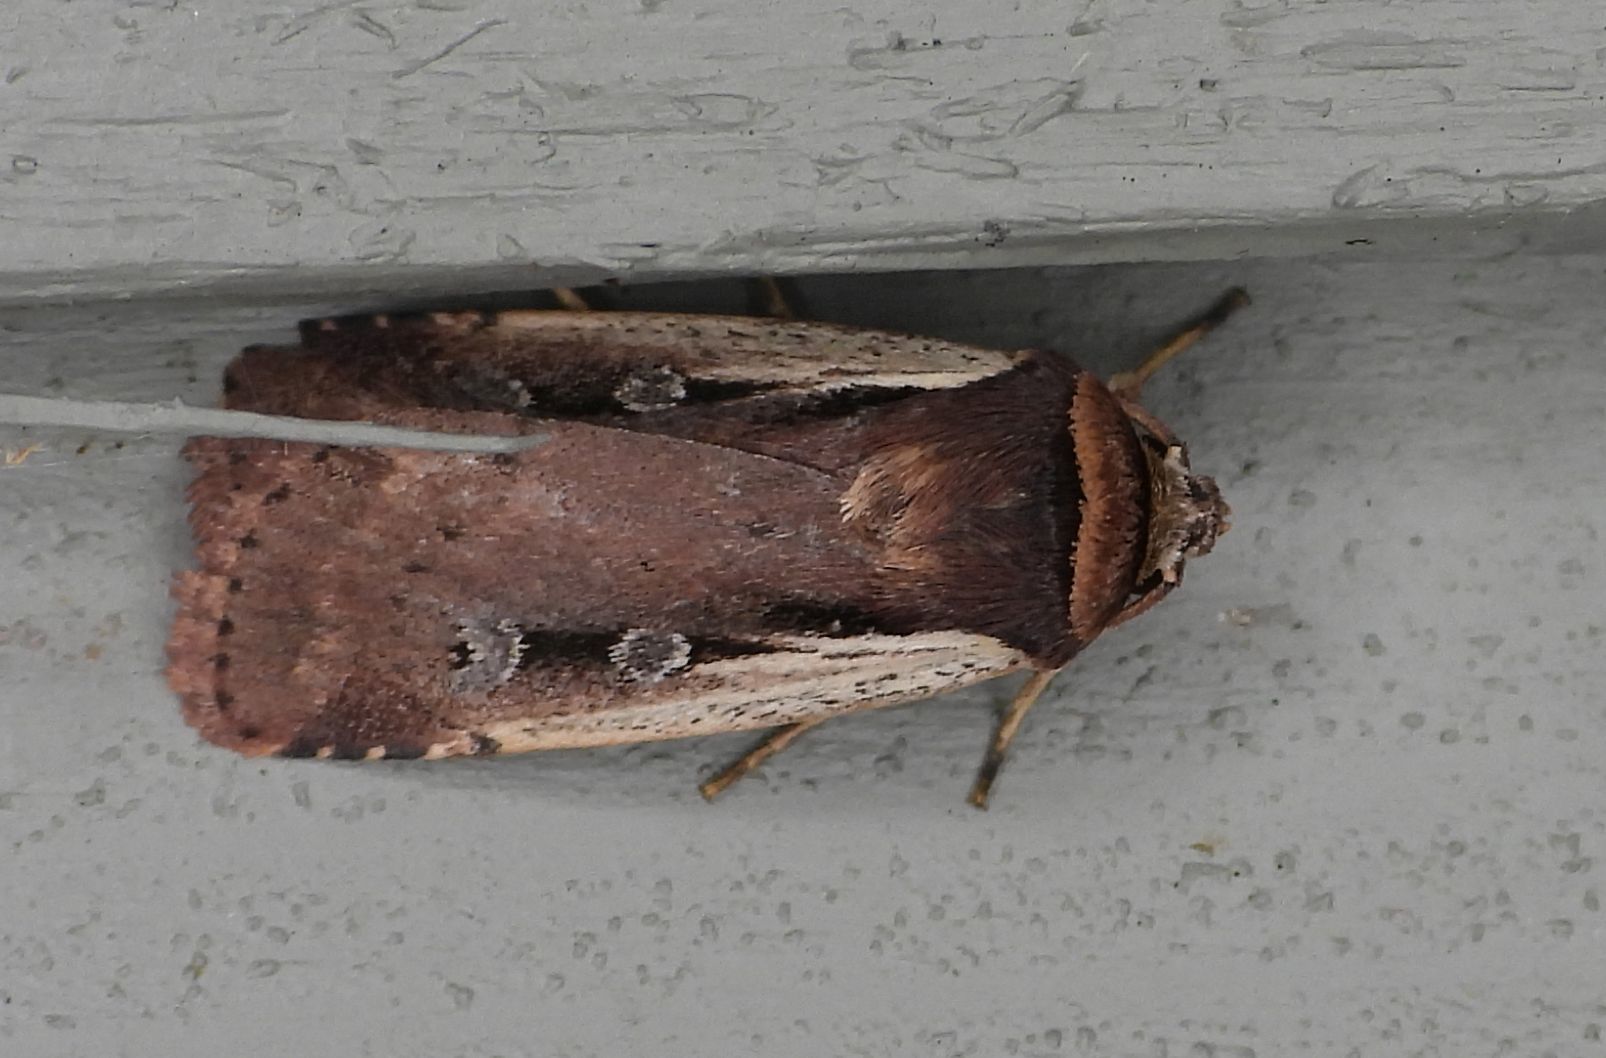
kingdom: Animalia
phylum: Arthropoda
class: Insecta
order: Lepidoptera
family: Noctuidae
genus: Ochropleura
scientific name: Ochropleura implecta
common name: Flame-shouldered dart
